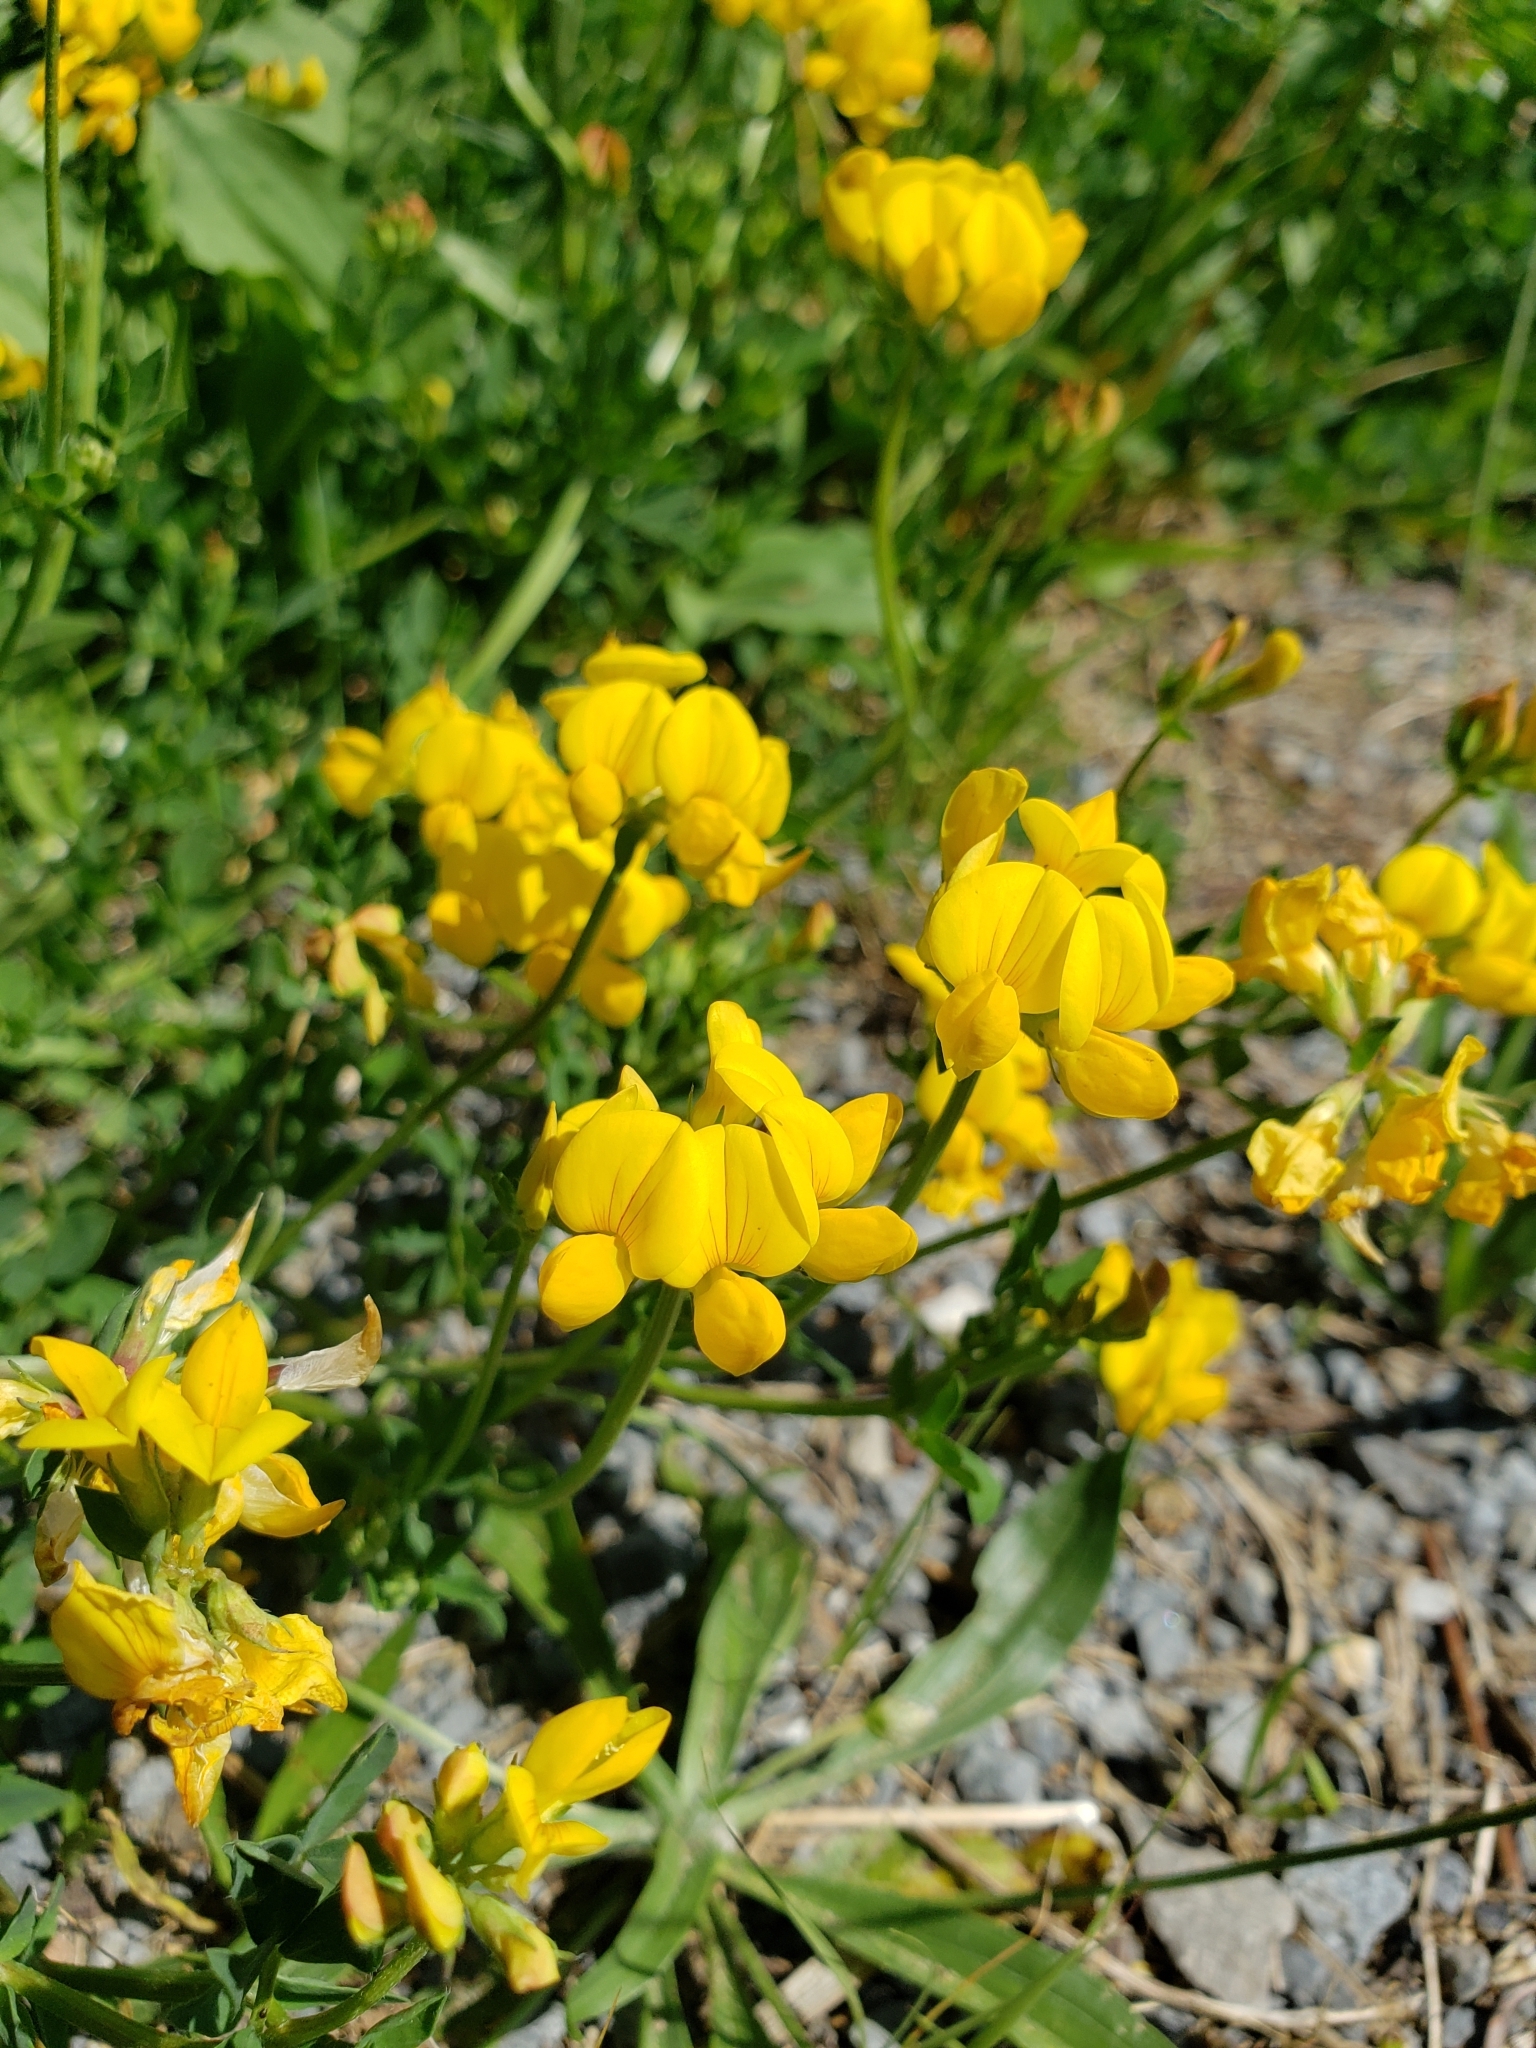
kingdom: Plantae
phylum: Tracheophyta
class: Magnoliopsida
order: Fabales
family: Fabaceae
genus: Lotus
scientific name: Lotus corniculatus
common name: Common bird's-foot-trefoil
